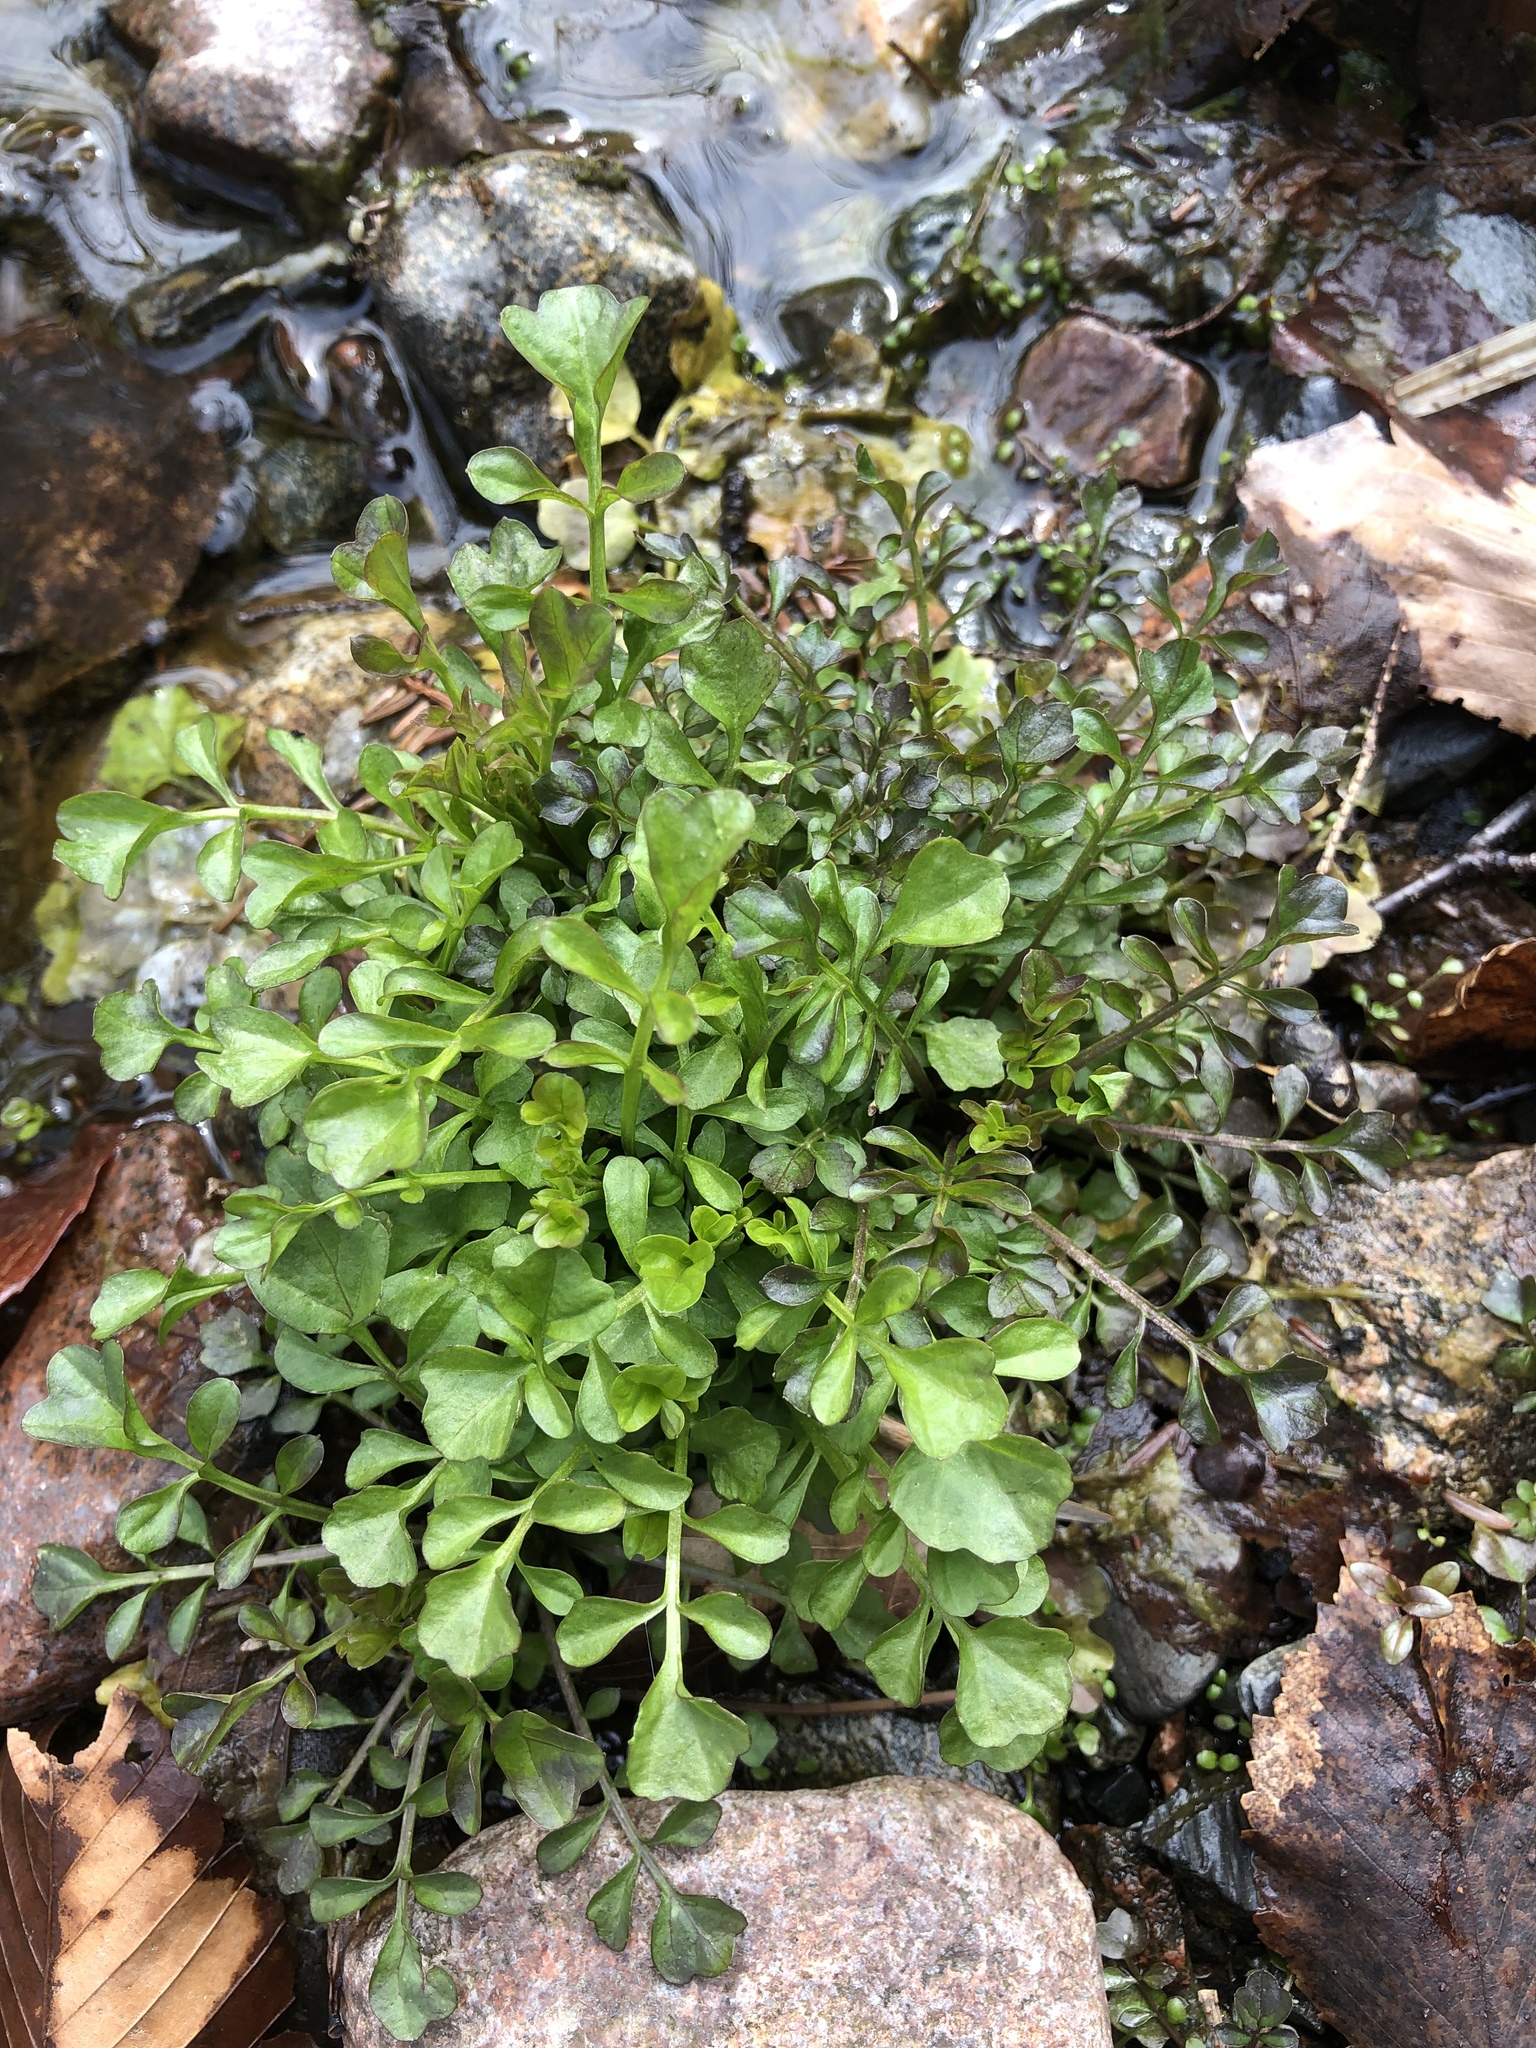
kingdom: Plantae
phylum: Tracheophyta
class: Magnoliopsida
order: Brassicales
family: Brassicaceae
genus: Cardamine
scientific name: Cardamine pensylvanica
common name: Pennsylvania bittercress
